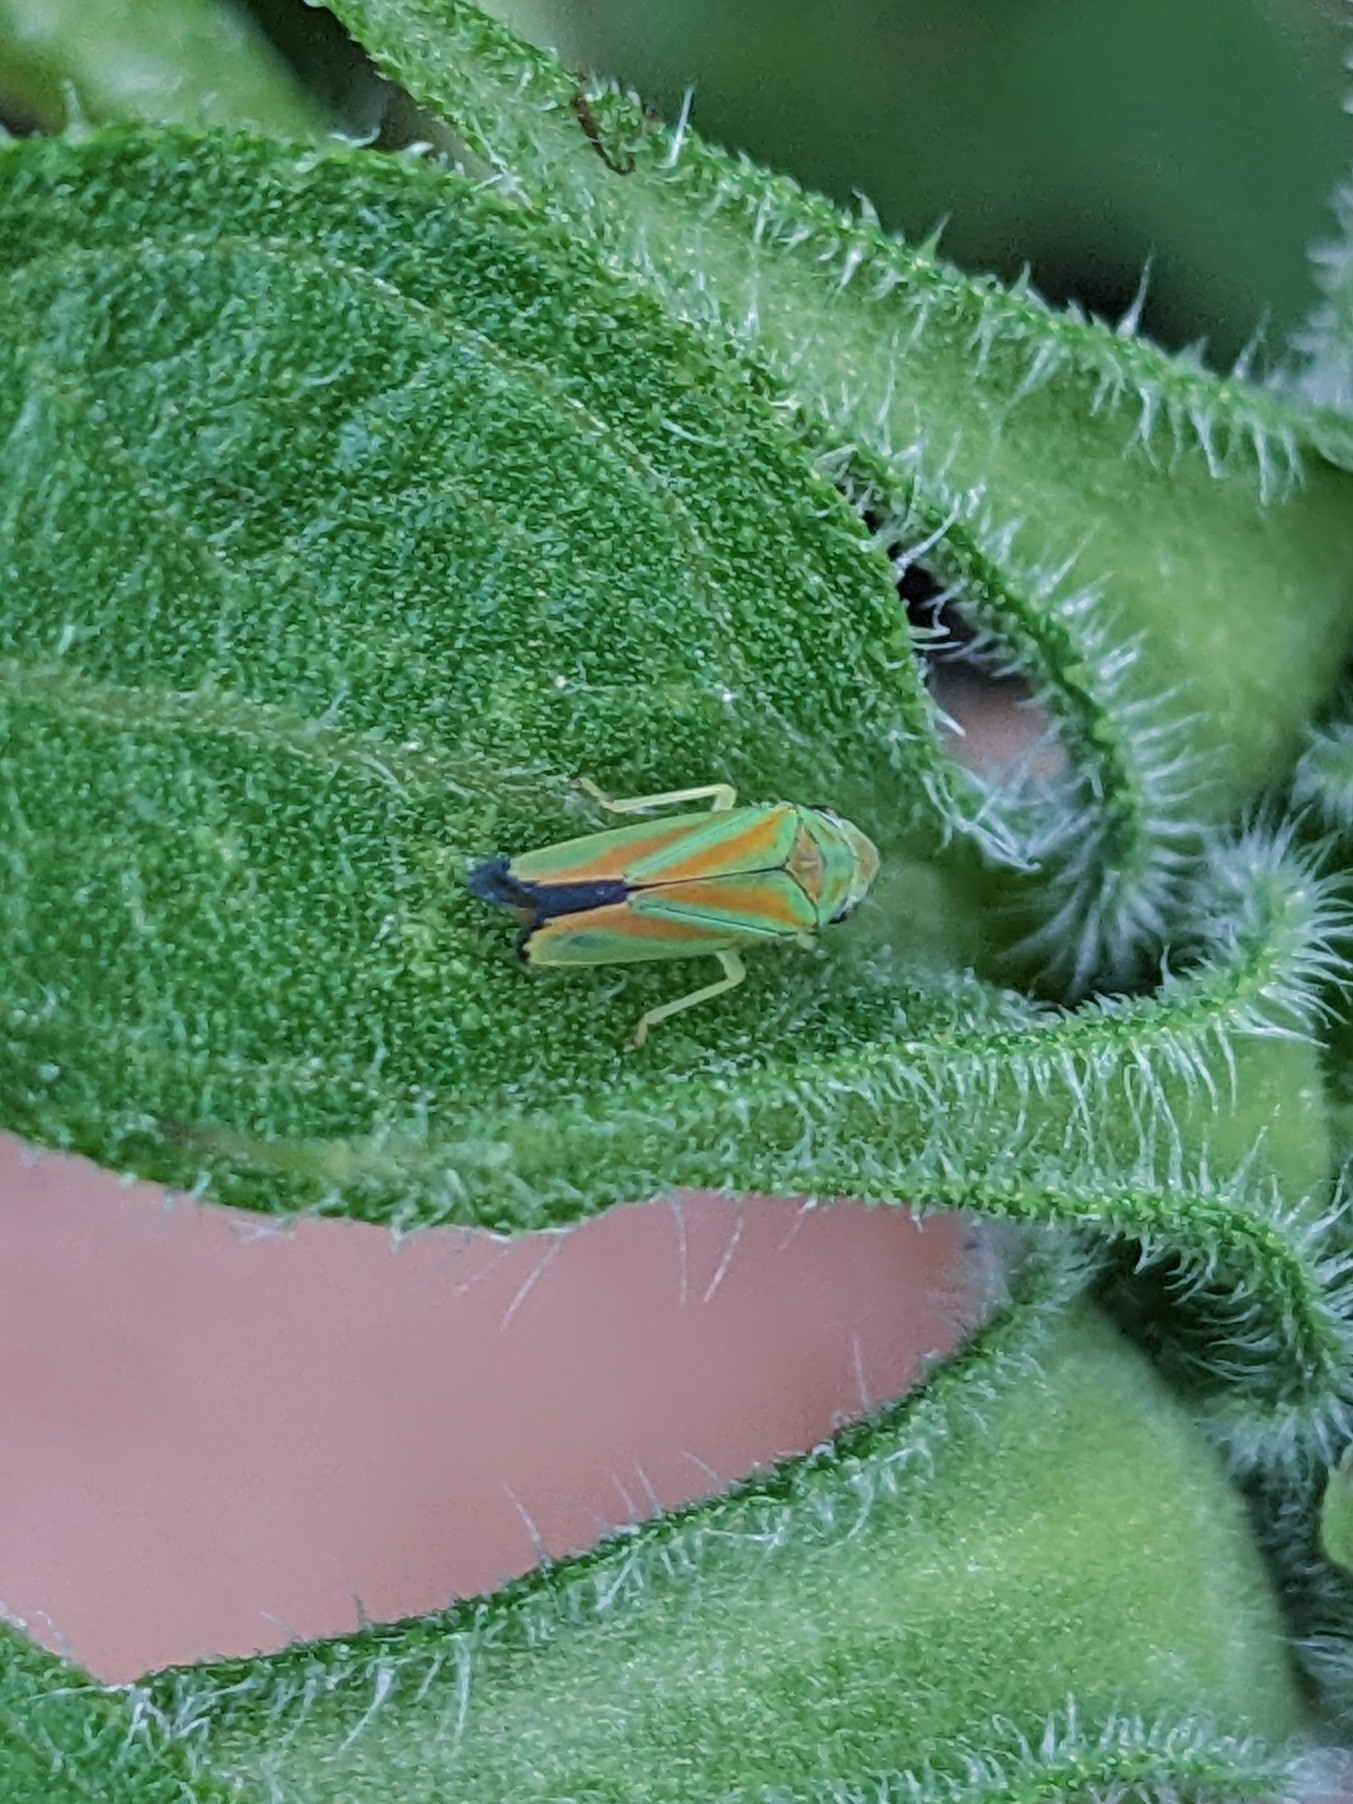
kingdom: Animalia
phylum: Arthropoda
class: Insecta
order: Hemiptera
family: Cicadellidae
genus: Graphocephala
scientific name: Graphocephala fennahi
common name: Rhododendron leafhopper
